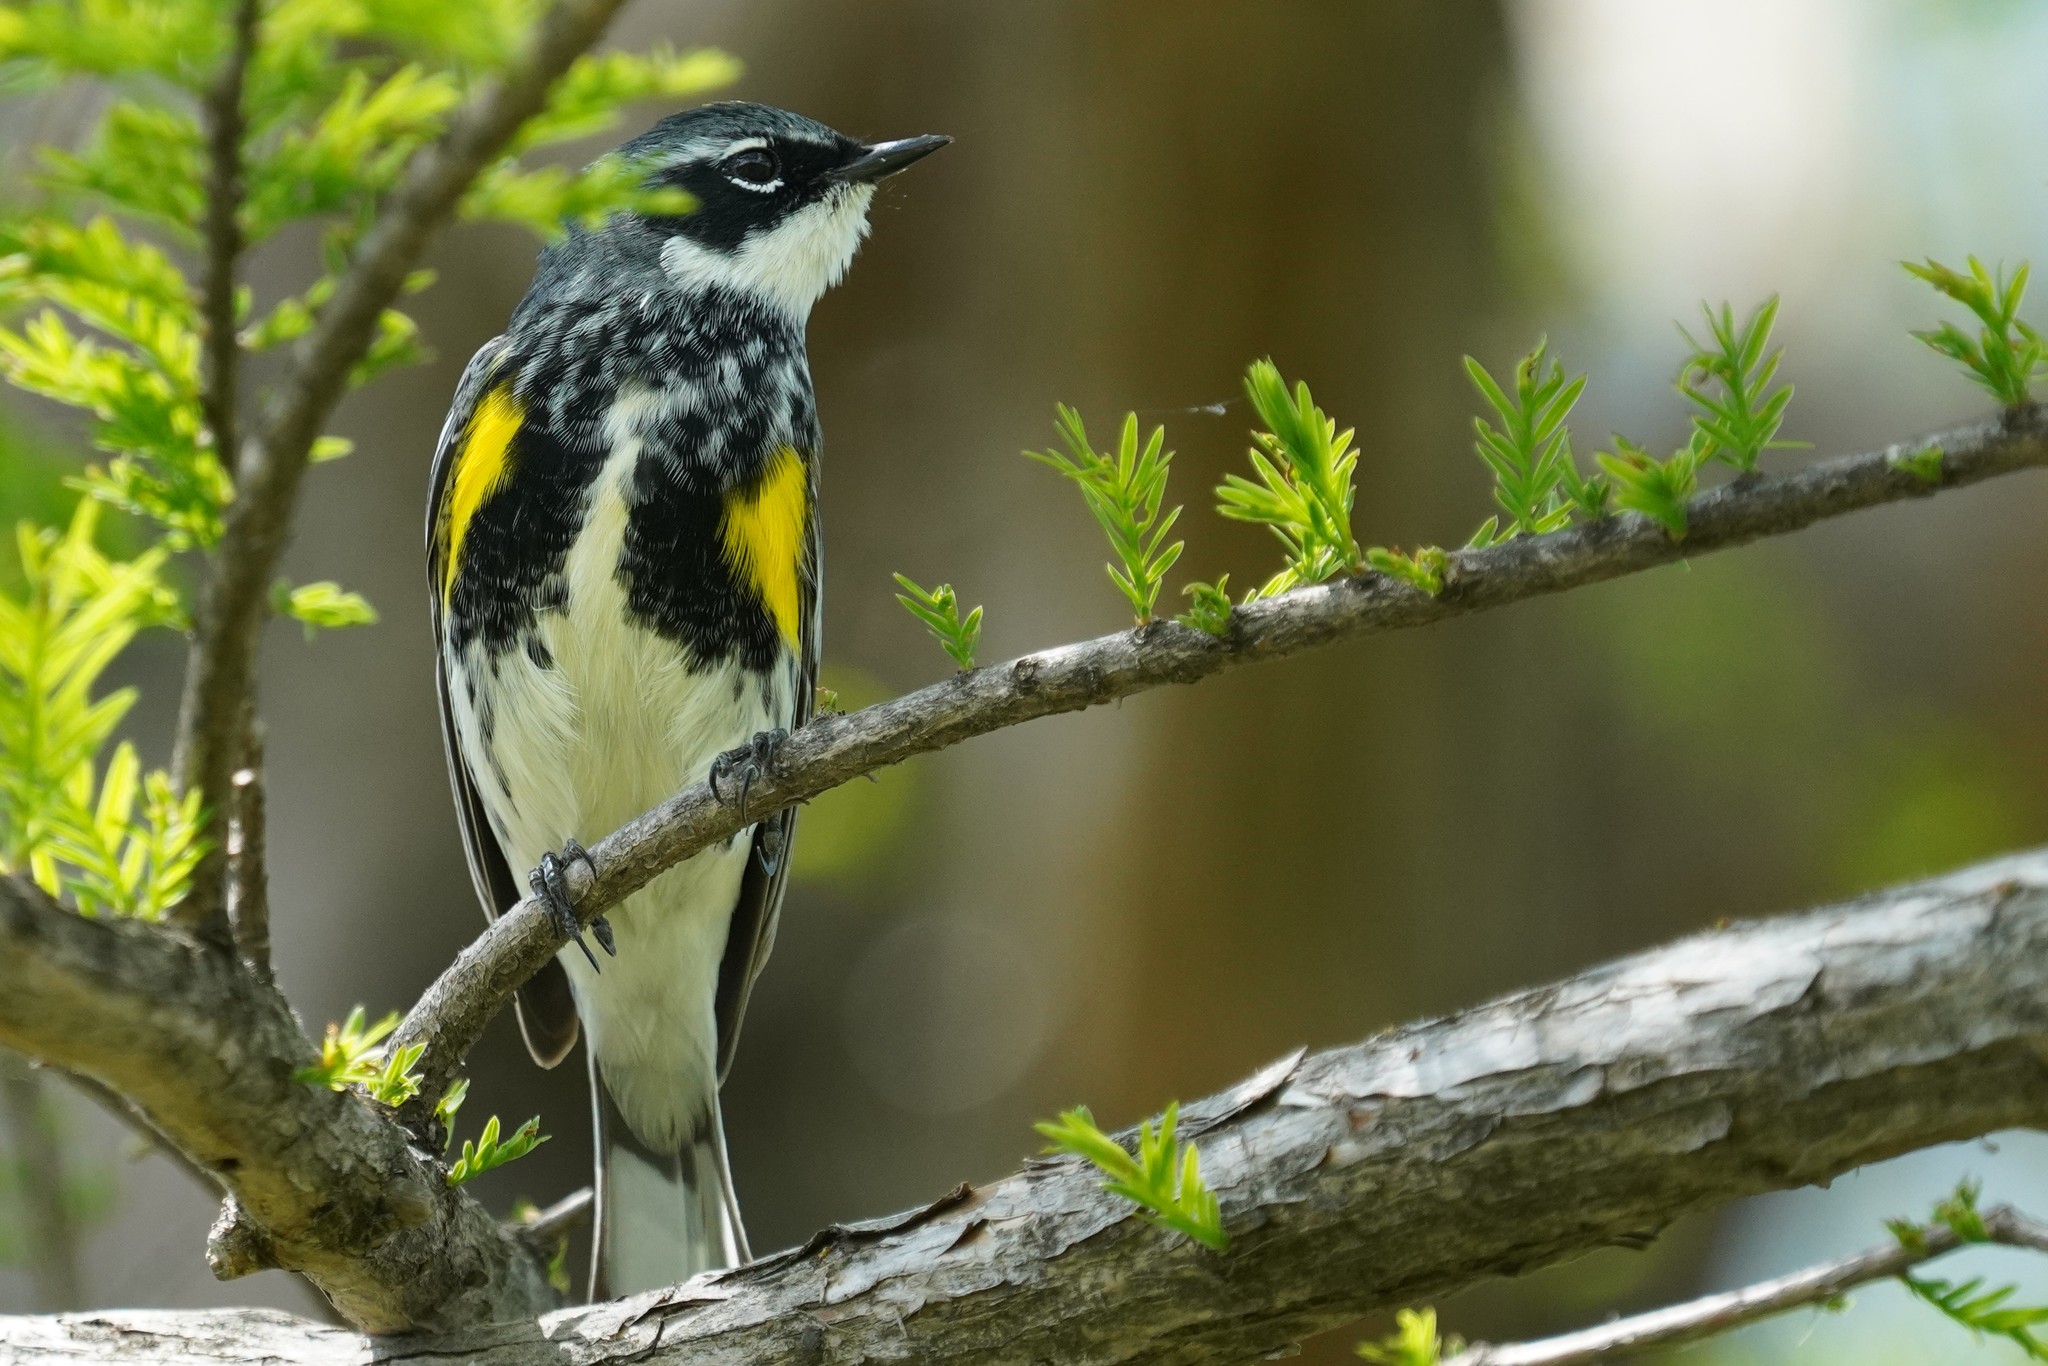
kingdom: Animalia
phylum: Chordata
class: Aves
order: Passeriformes
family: Parulidae
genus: Setophaga
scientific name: Setophaga coronata
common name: Myrtle warbler
